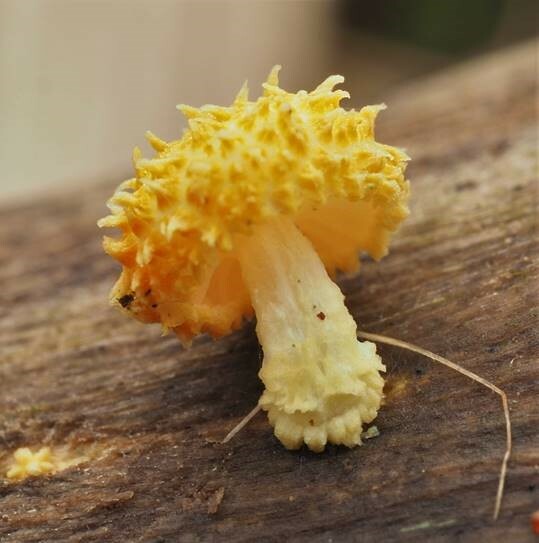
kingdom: Fungi
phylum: Basidiomycota
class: Agaricomycetes
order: Agaricales
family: Physalacriaceae
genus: Cyptotrama
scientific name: Cyptotrama asprata
